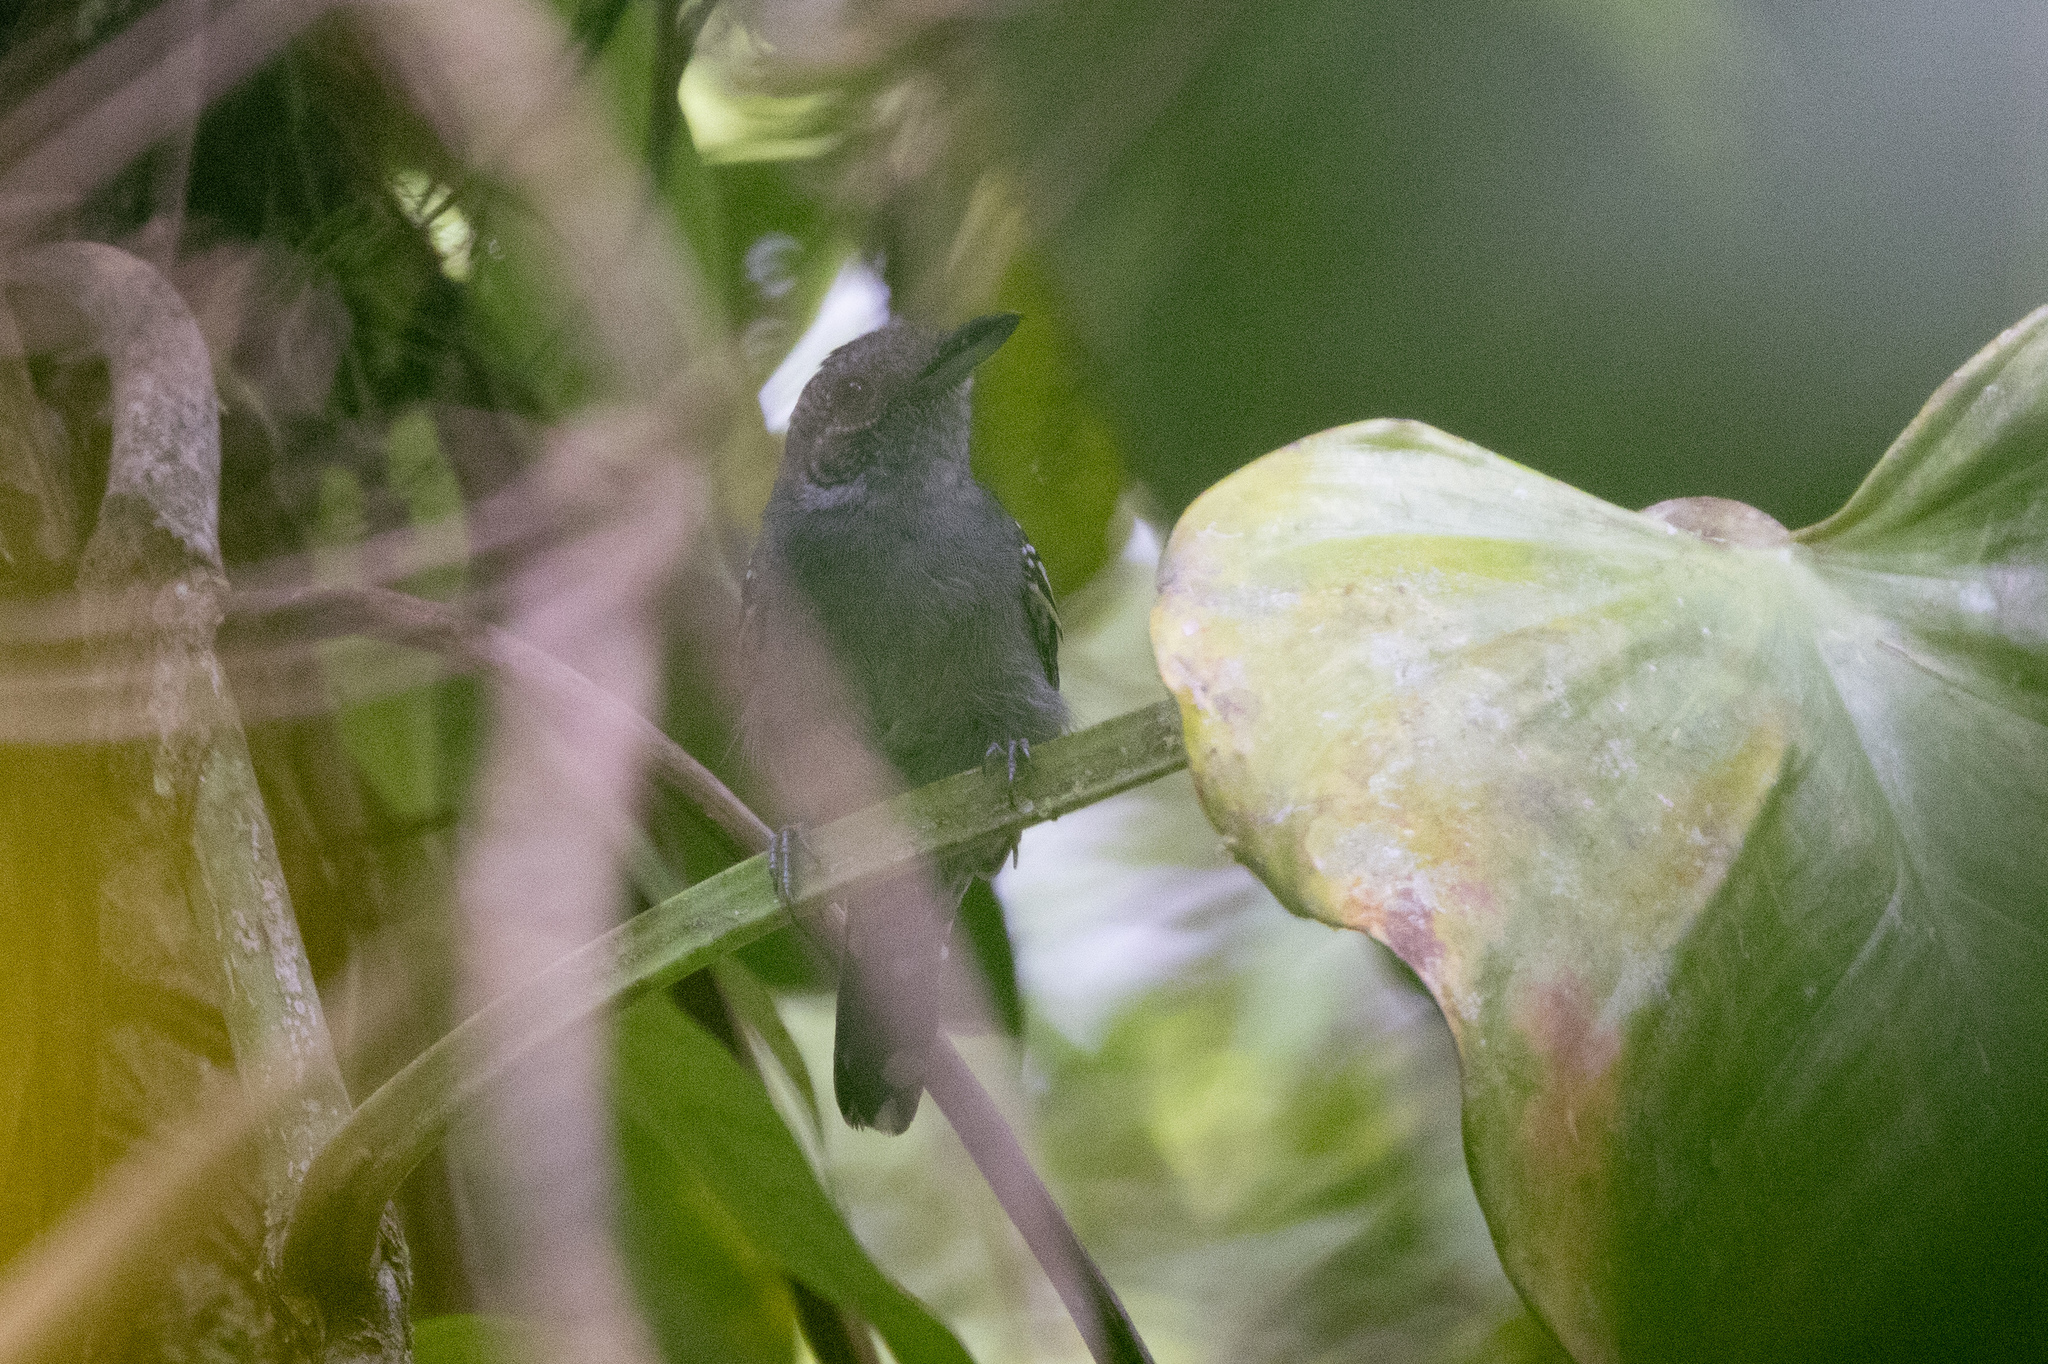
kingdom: Animalia
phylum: Chordata
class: Aves
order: Passeriformes
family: Thamnophilidae
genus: Thamnophilus
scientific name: Thamnophilus atrinucha
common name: Black-crowned antshrike
